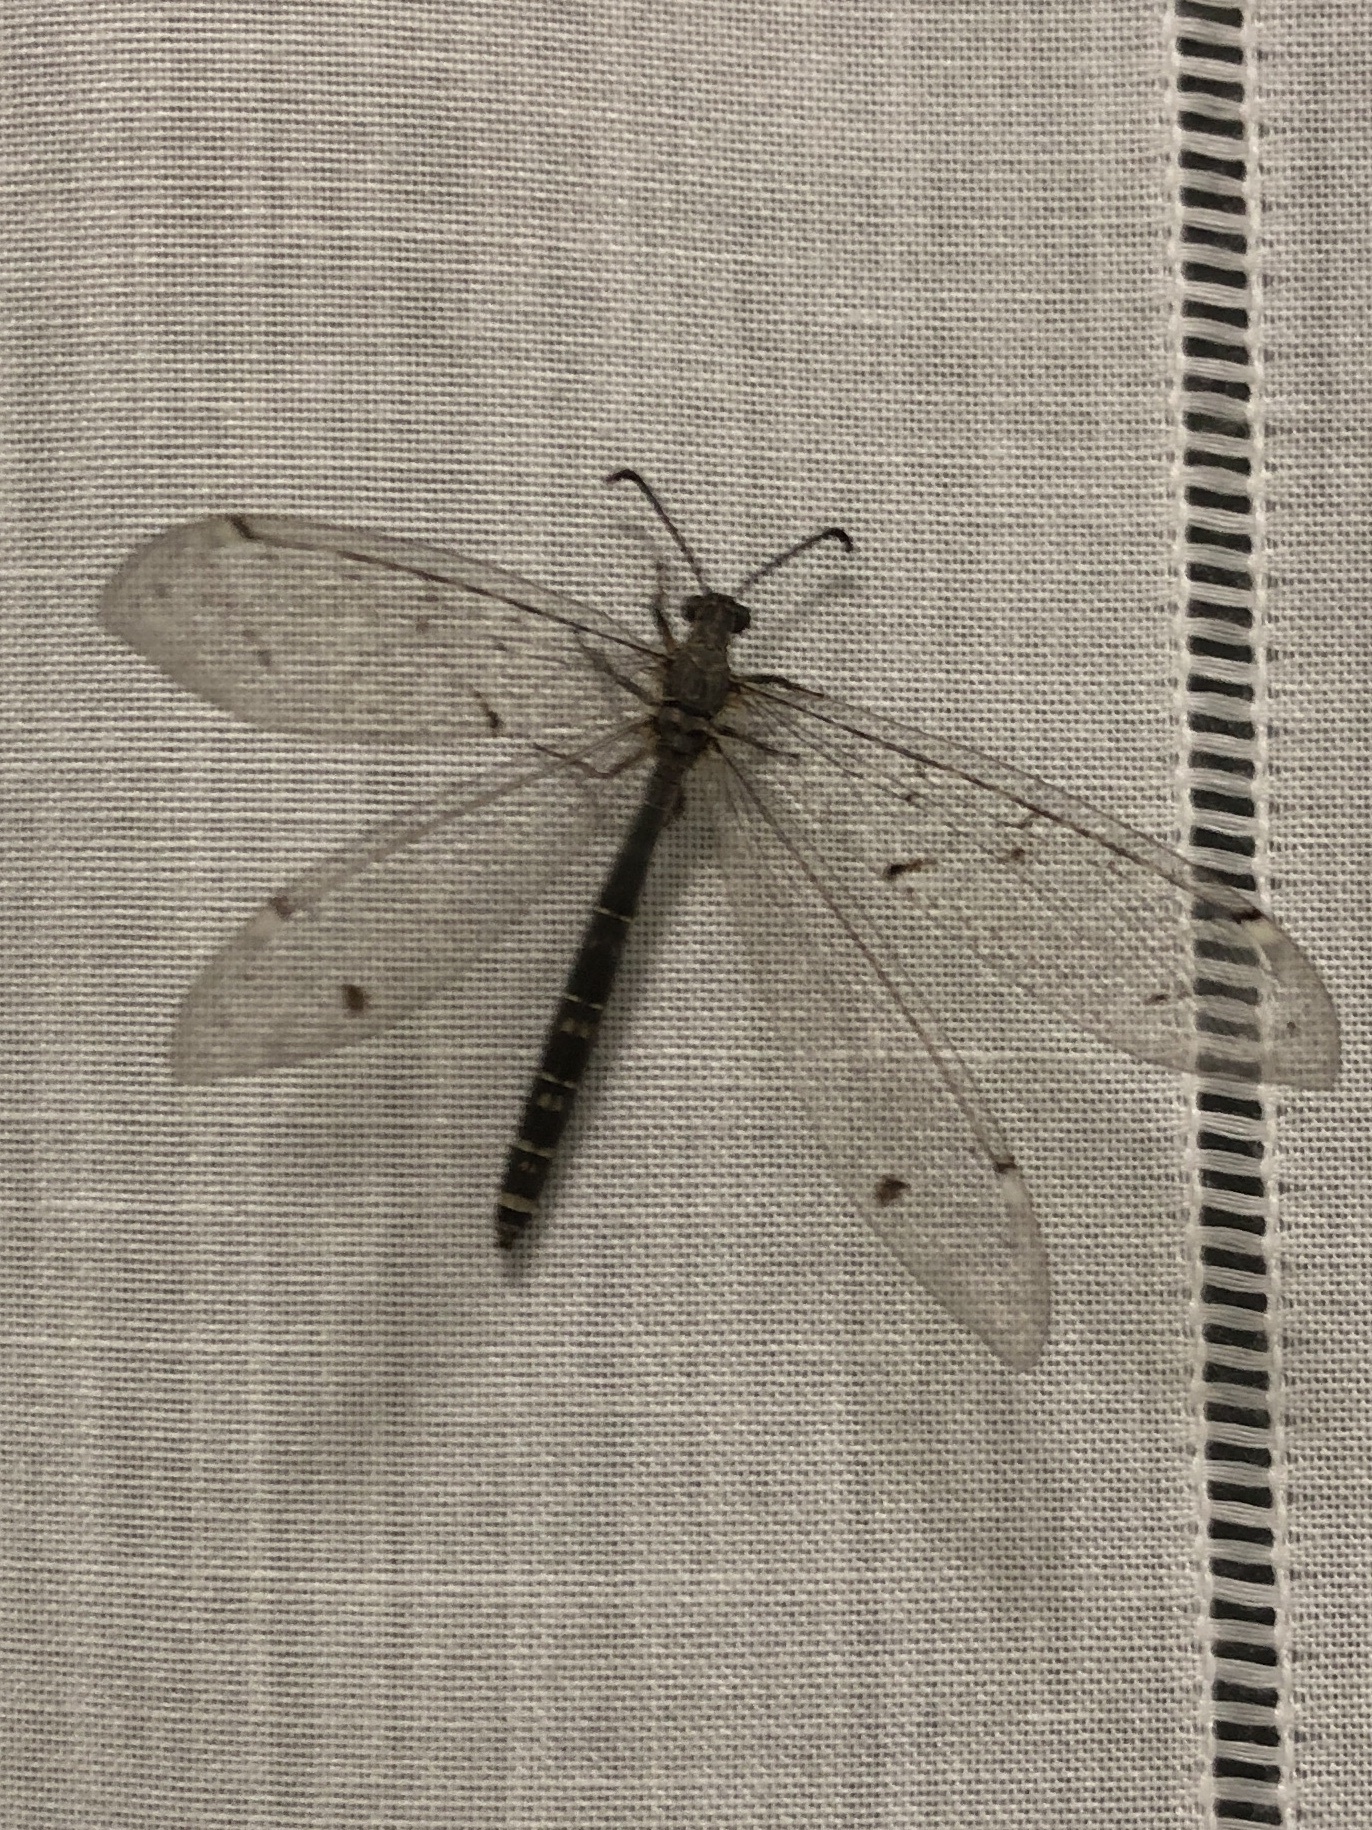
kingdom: Animalia
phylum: Arthropoda
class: Insecta
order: Neuroptera
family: Myrmeleontidae
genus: Distoleon
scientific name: Distoleon tetragrammicus
